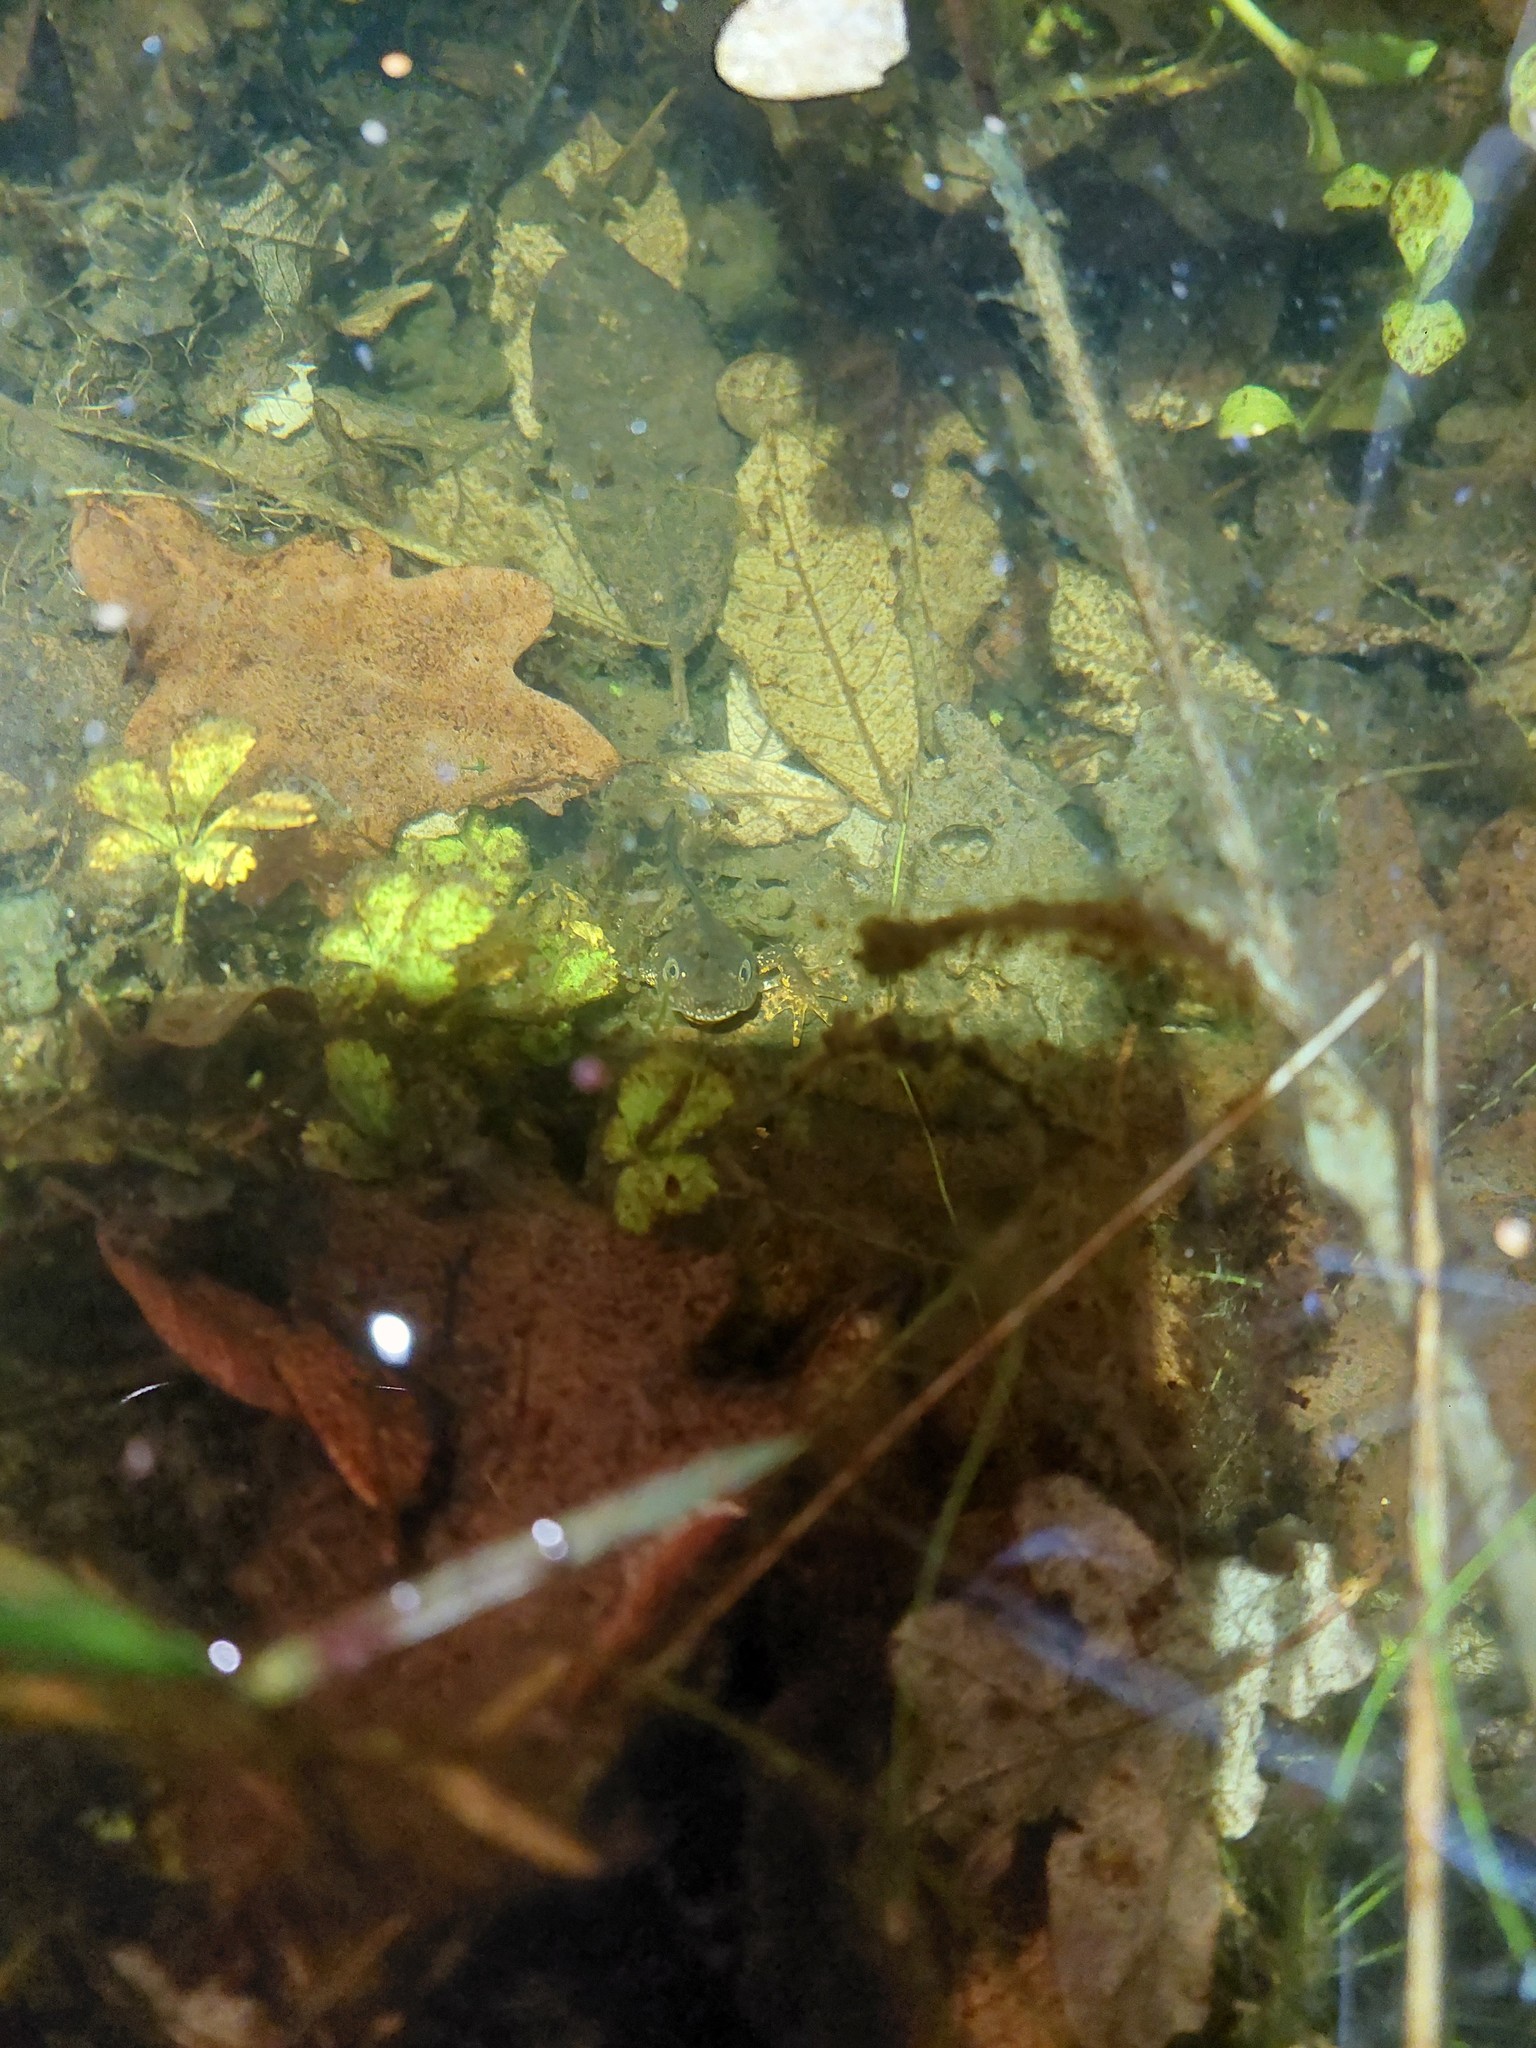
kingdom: Animalia
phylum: Chordata
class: Amphibia
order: Caudata
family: Salamandridae
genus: Triturus
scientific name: Triturus cristatus
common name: Crested newt
